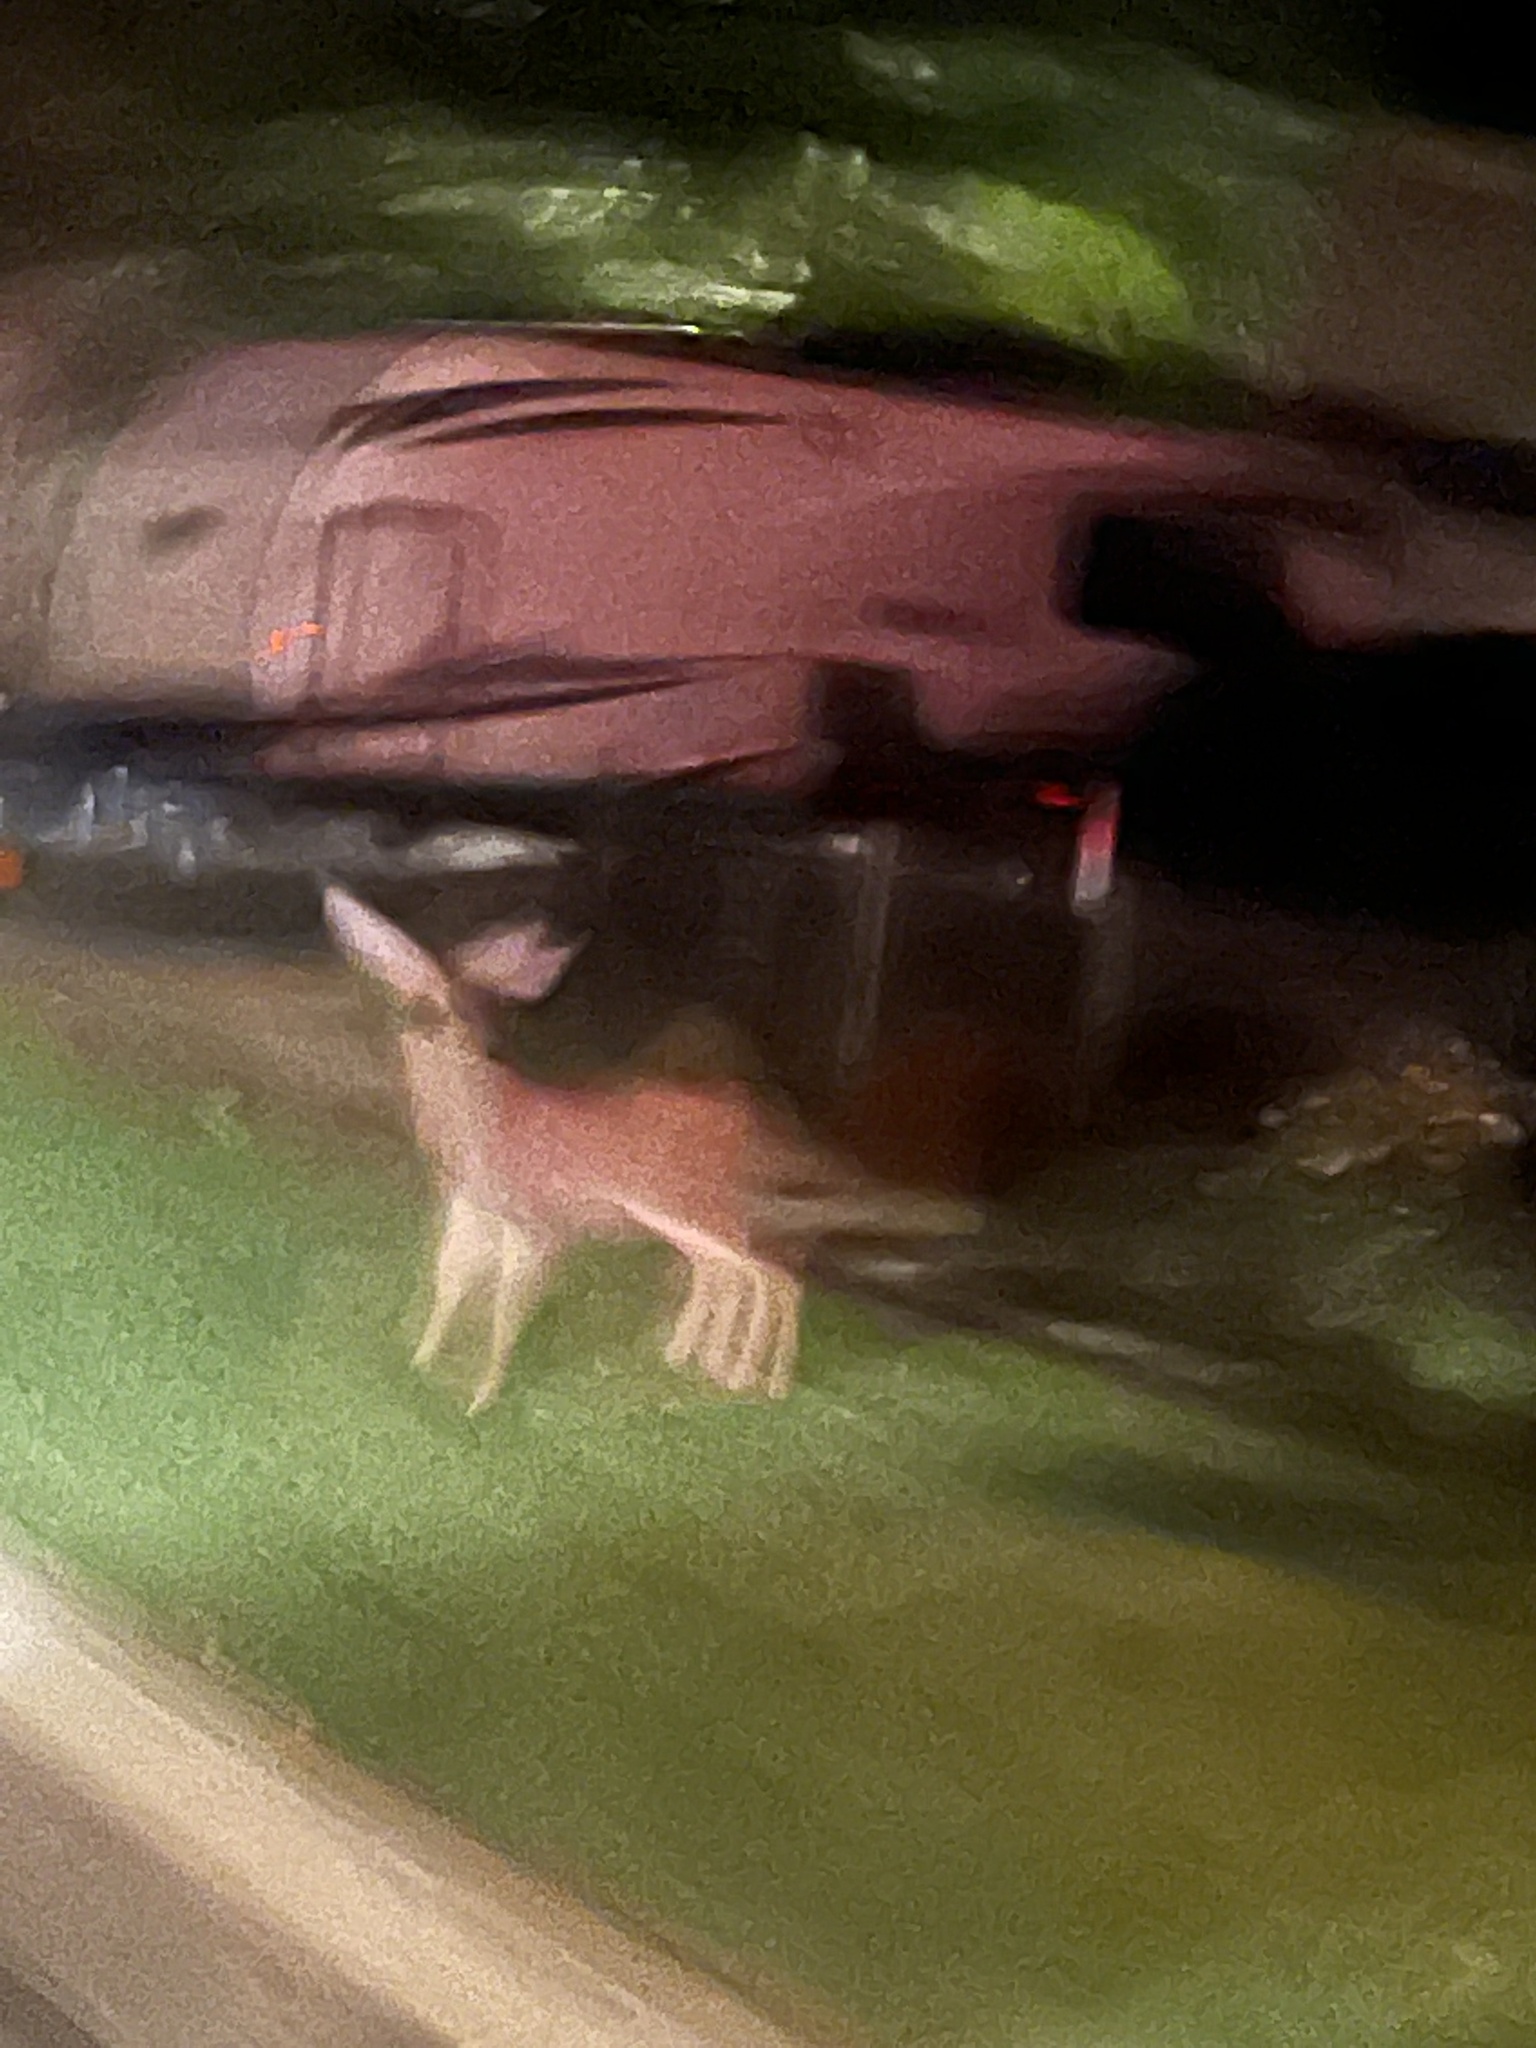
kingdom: Animalia
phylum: Chordata
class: Mammalia
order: Artiodactyla
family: Cervidae
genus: Odocoileus
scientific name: Odocoileus hemionus
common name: Mule deer
